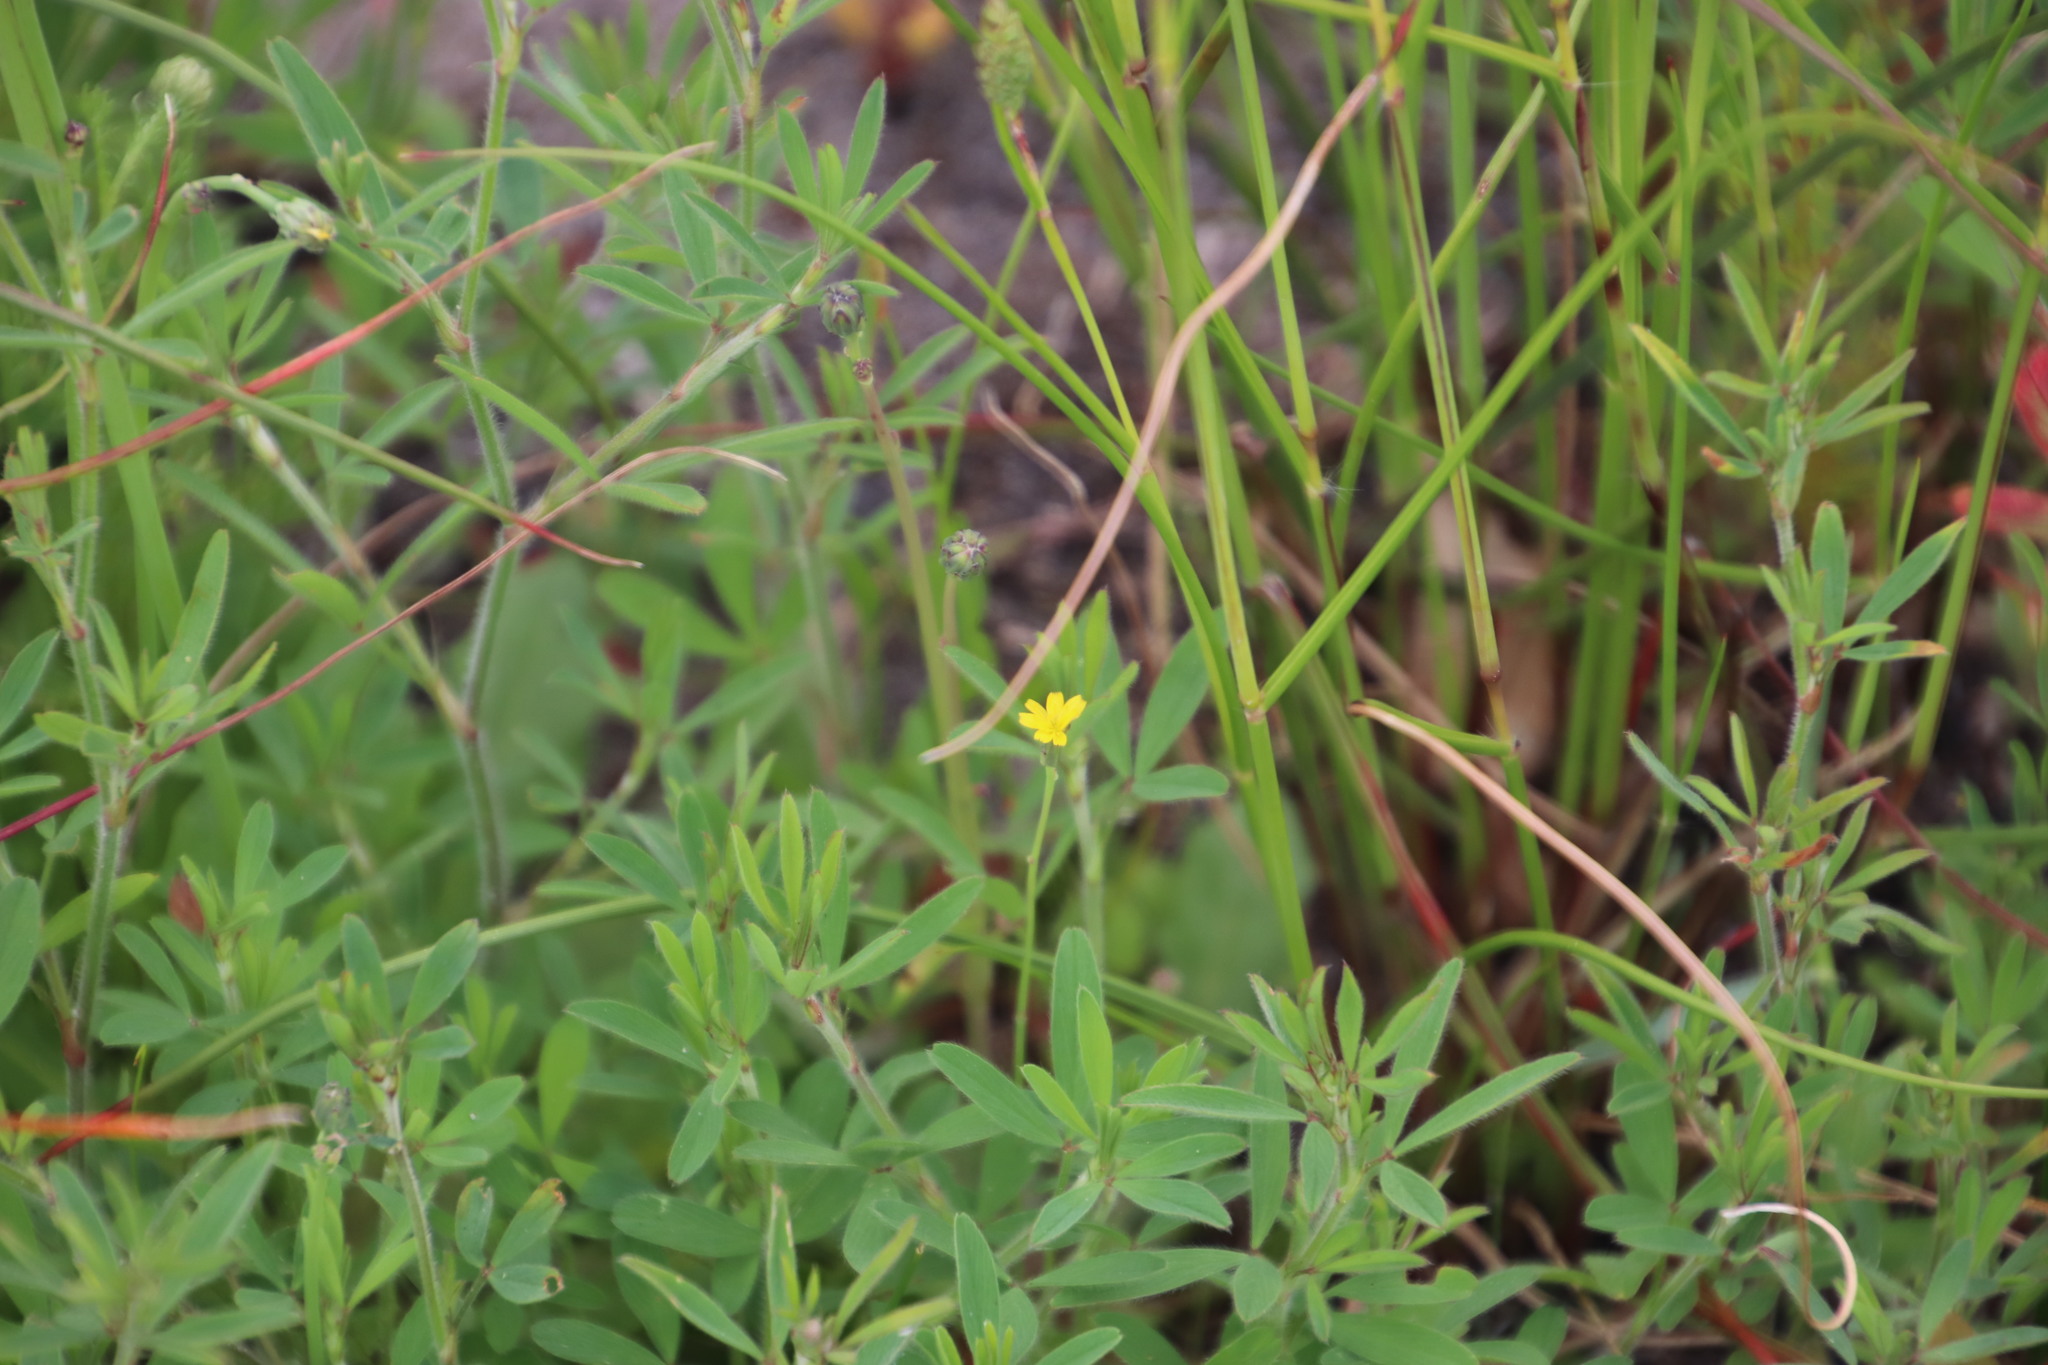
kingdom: Plantae
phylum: Tracheophyta
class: Magnoliopsida
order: Fabales
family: Fabaceae
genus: Trifolium
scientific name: Trifolium arvense
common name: Hare's-foot clover
